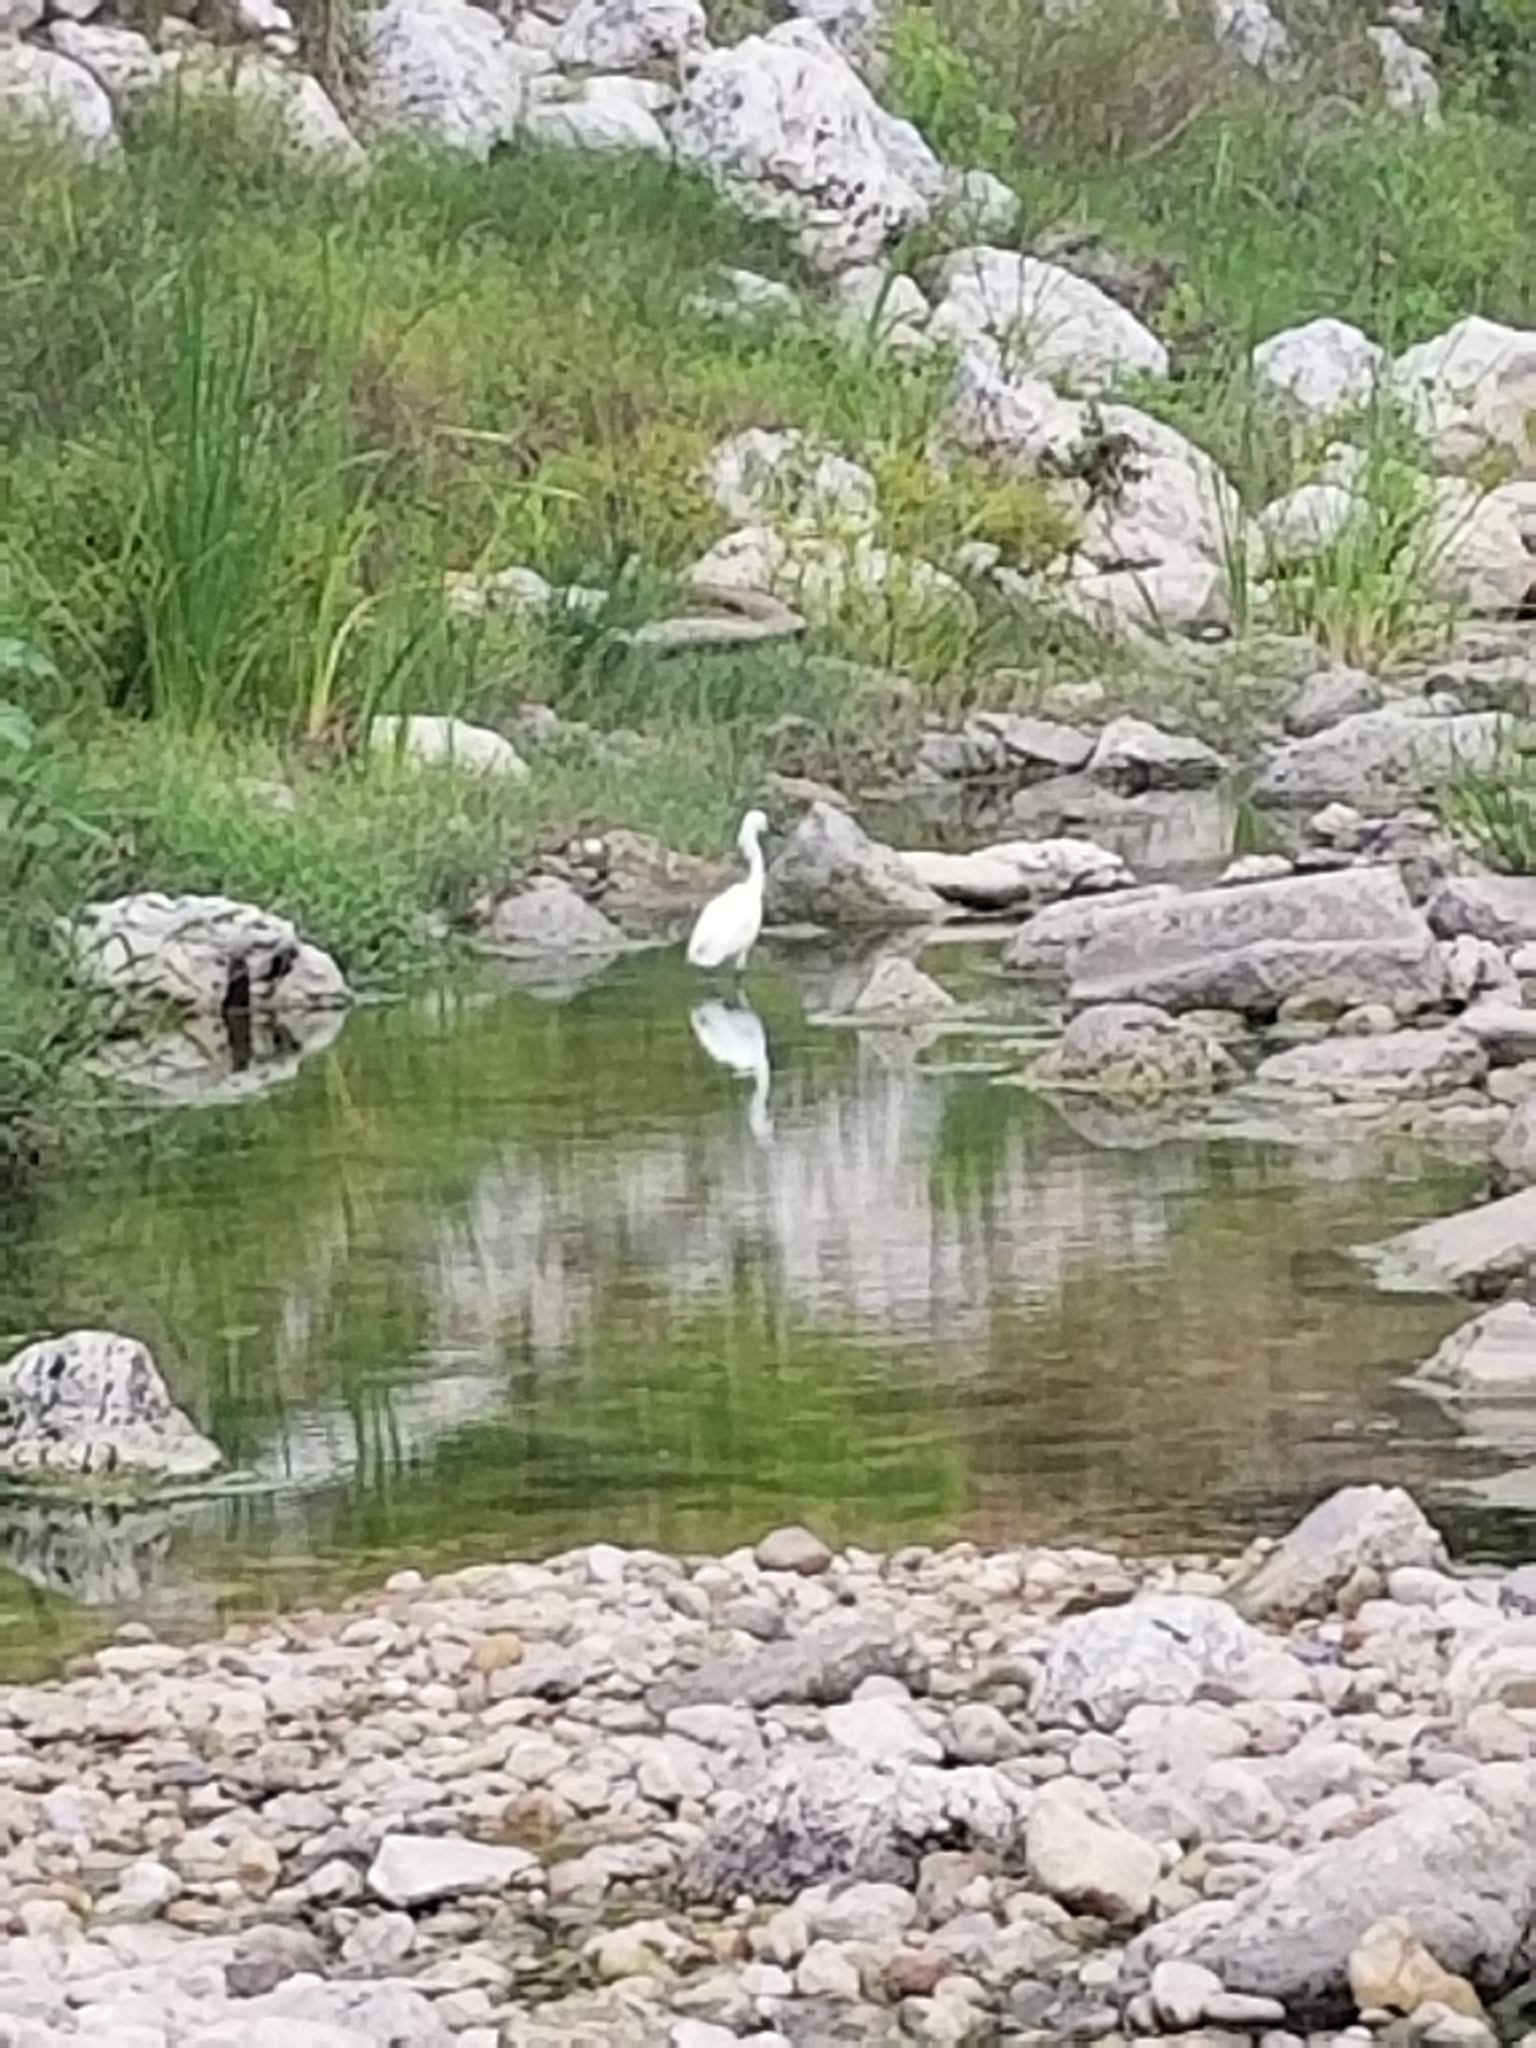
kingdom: Animalia
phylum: Chordata
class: Aves
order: Pelecaniformes
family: Ardeidae
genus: Egretta
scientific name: Egretta thula
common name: Snowy egret
